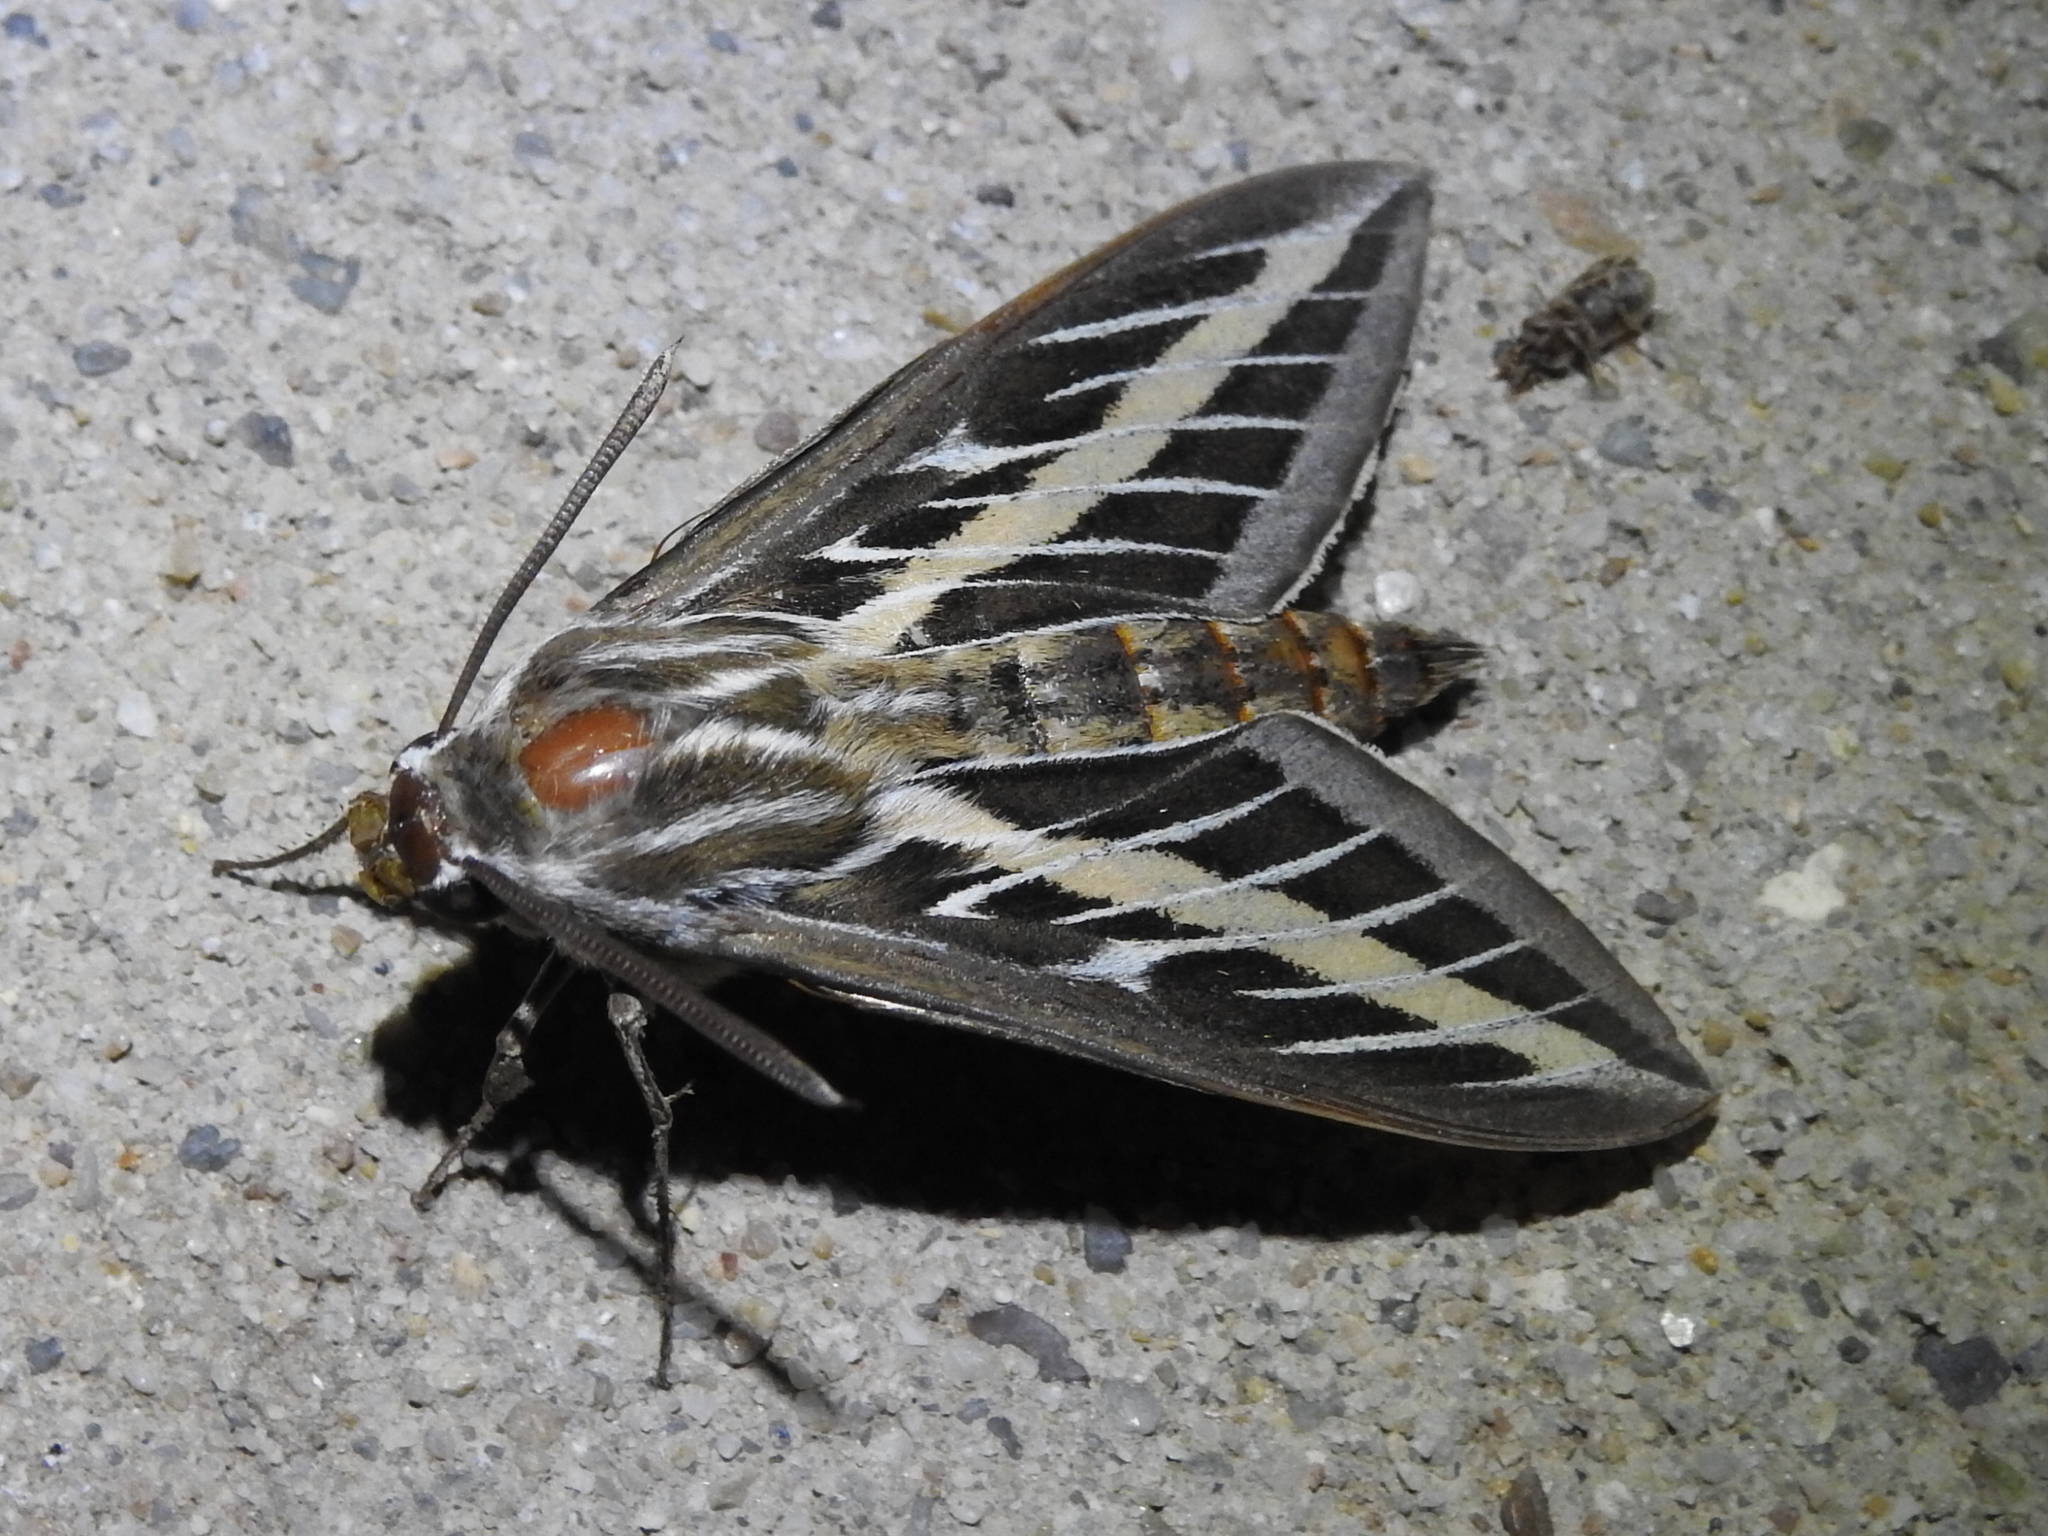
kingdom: Animalia
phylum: Arthropoda
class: Insecta
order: Lepidoptera
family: Sphingidae
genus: Hyles
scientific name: Hyles lineata
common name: White-lined sphinx
